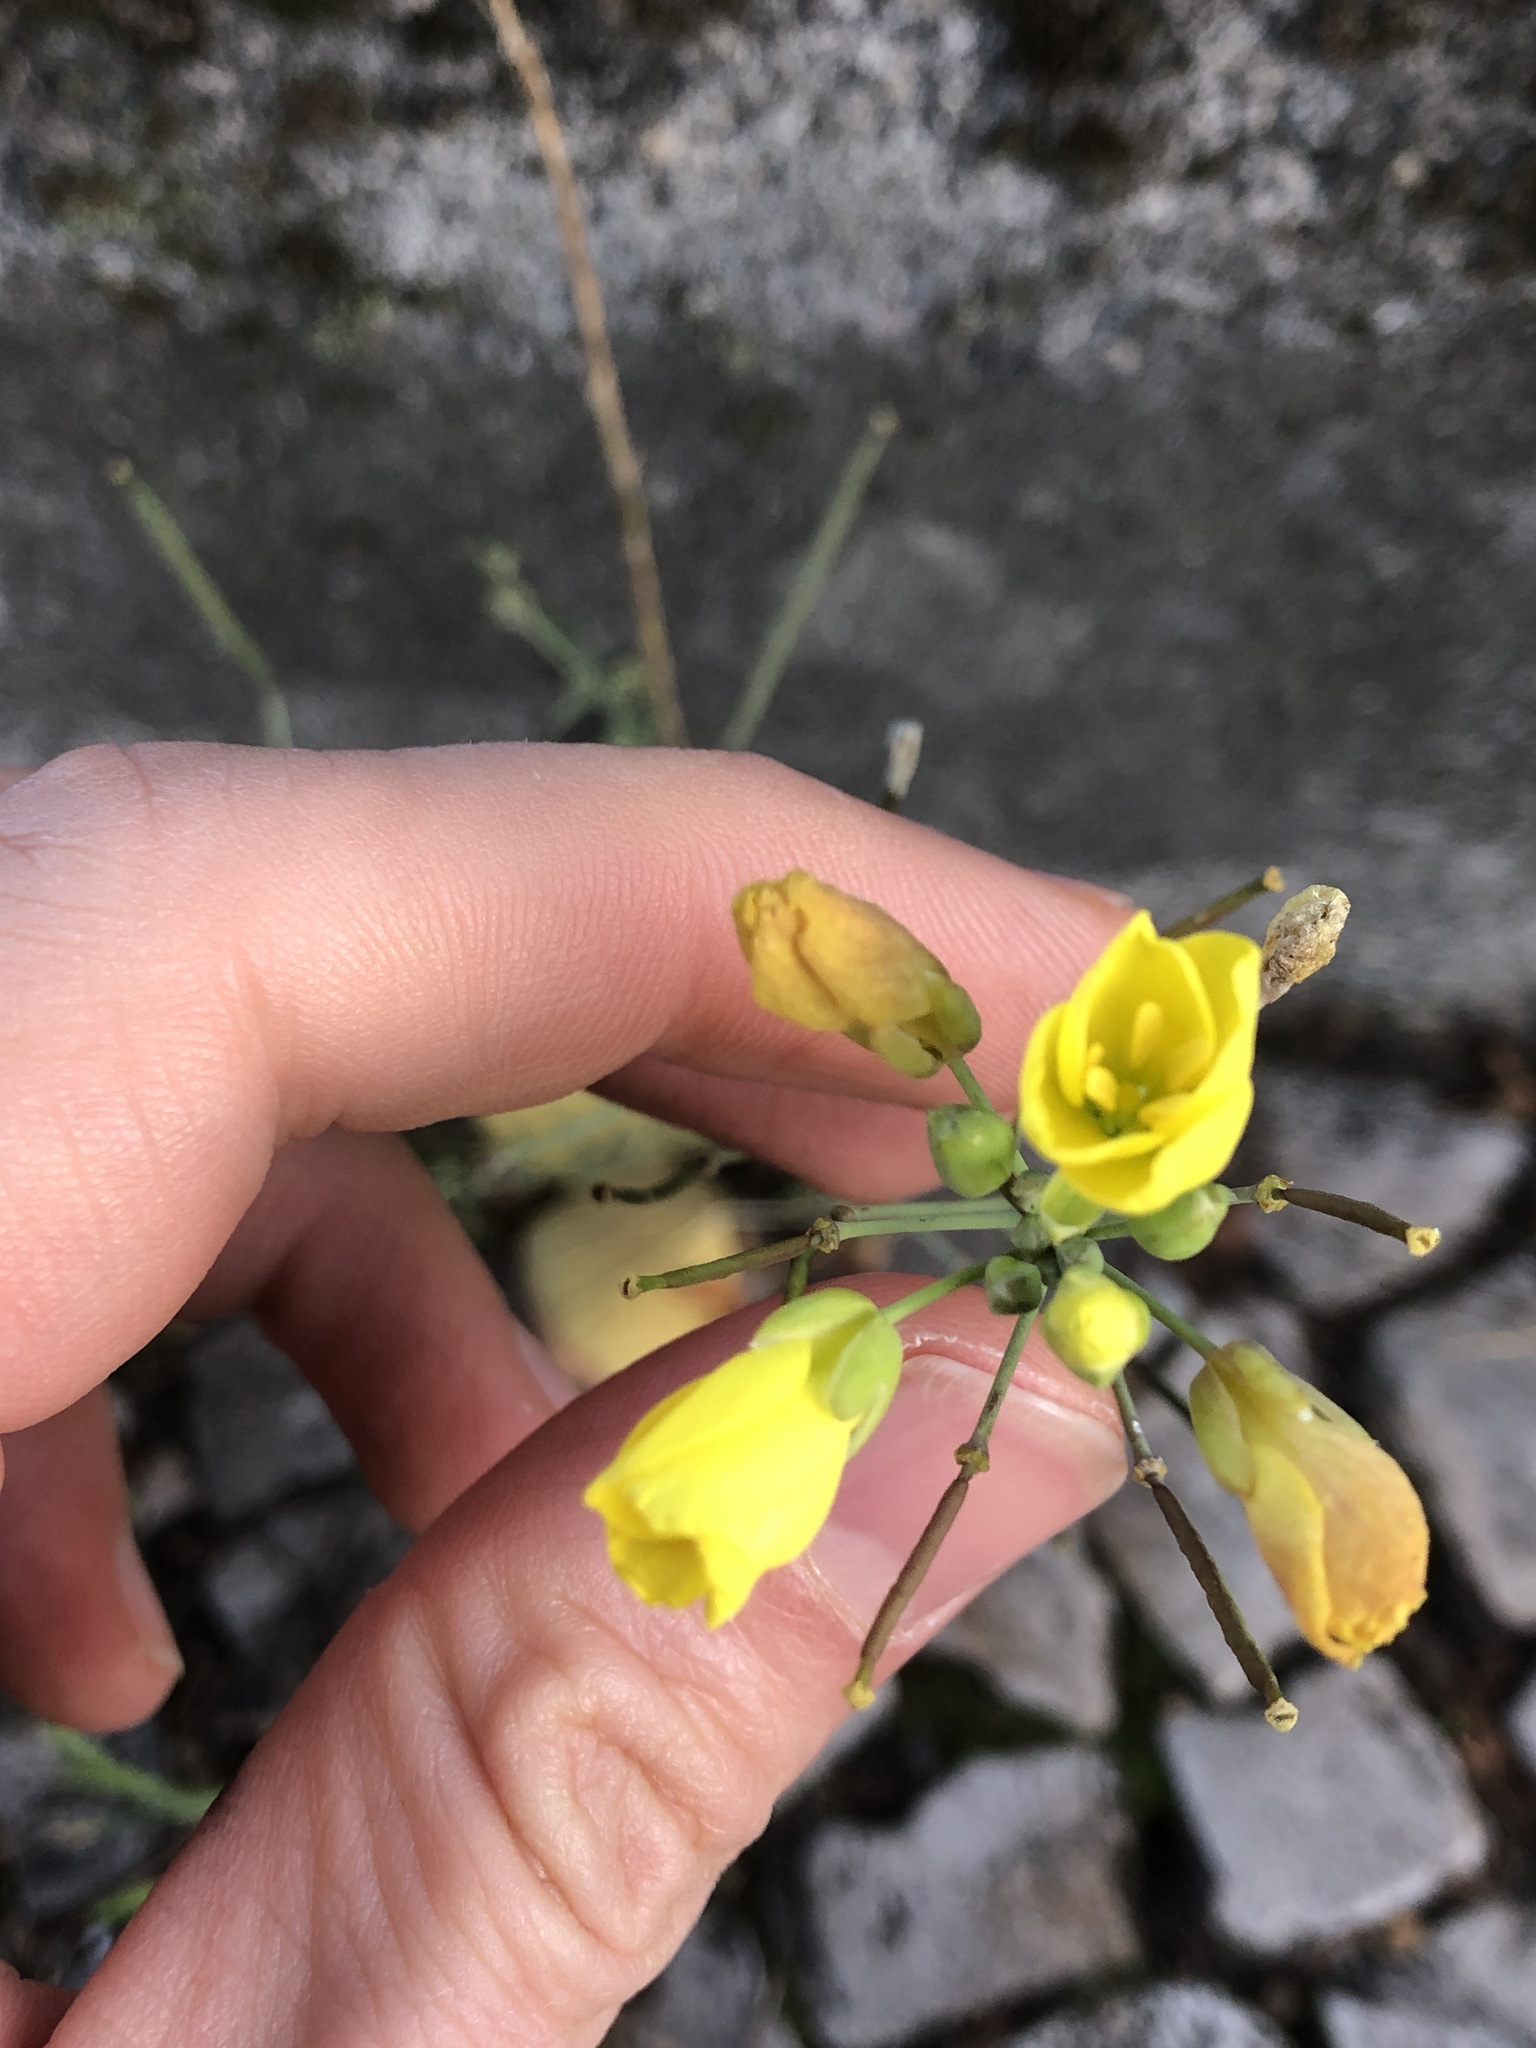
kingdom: Plantae
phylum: Tracheophyta
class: Magnoliopsida
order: Brassicales
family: Brassicaceae
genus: Diplotaxis
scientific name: Diplotaxis tenuifolia
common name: Perennial wall-rocket
